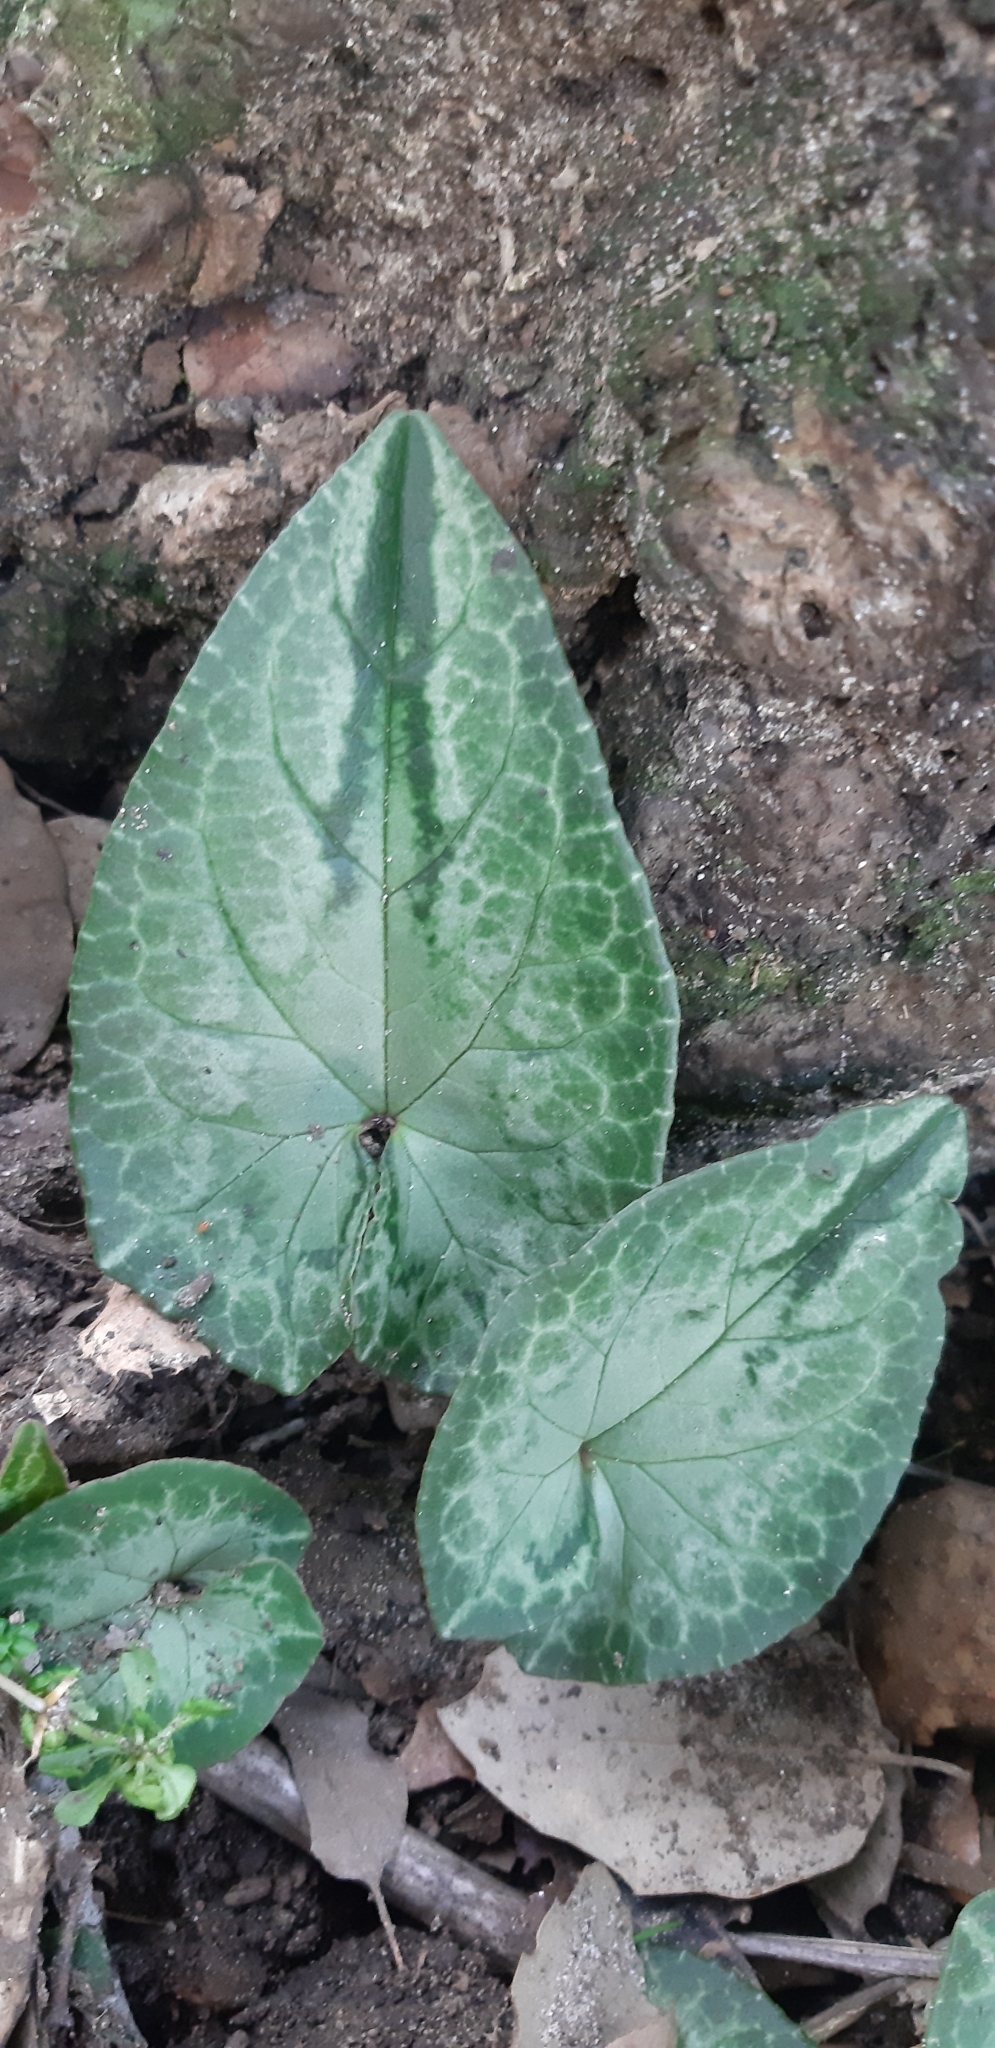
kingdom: Plantae
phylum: Tracheophyta
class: Magnoliopsida
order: Ericales
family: Primulaceae
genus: Cyclamen
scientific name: Cyclamen hederifolium
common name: Sowbread
